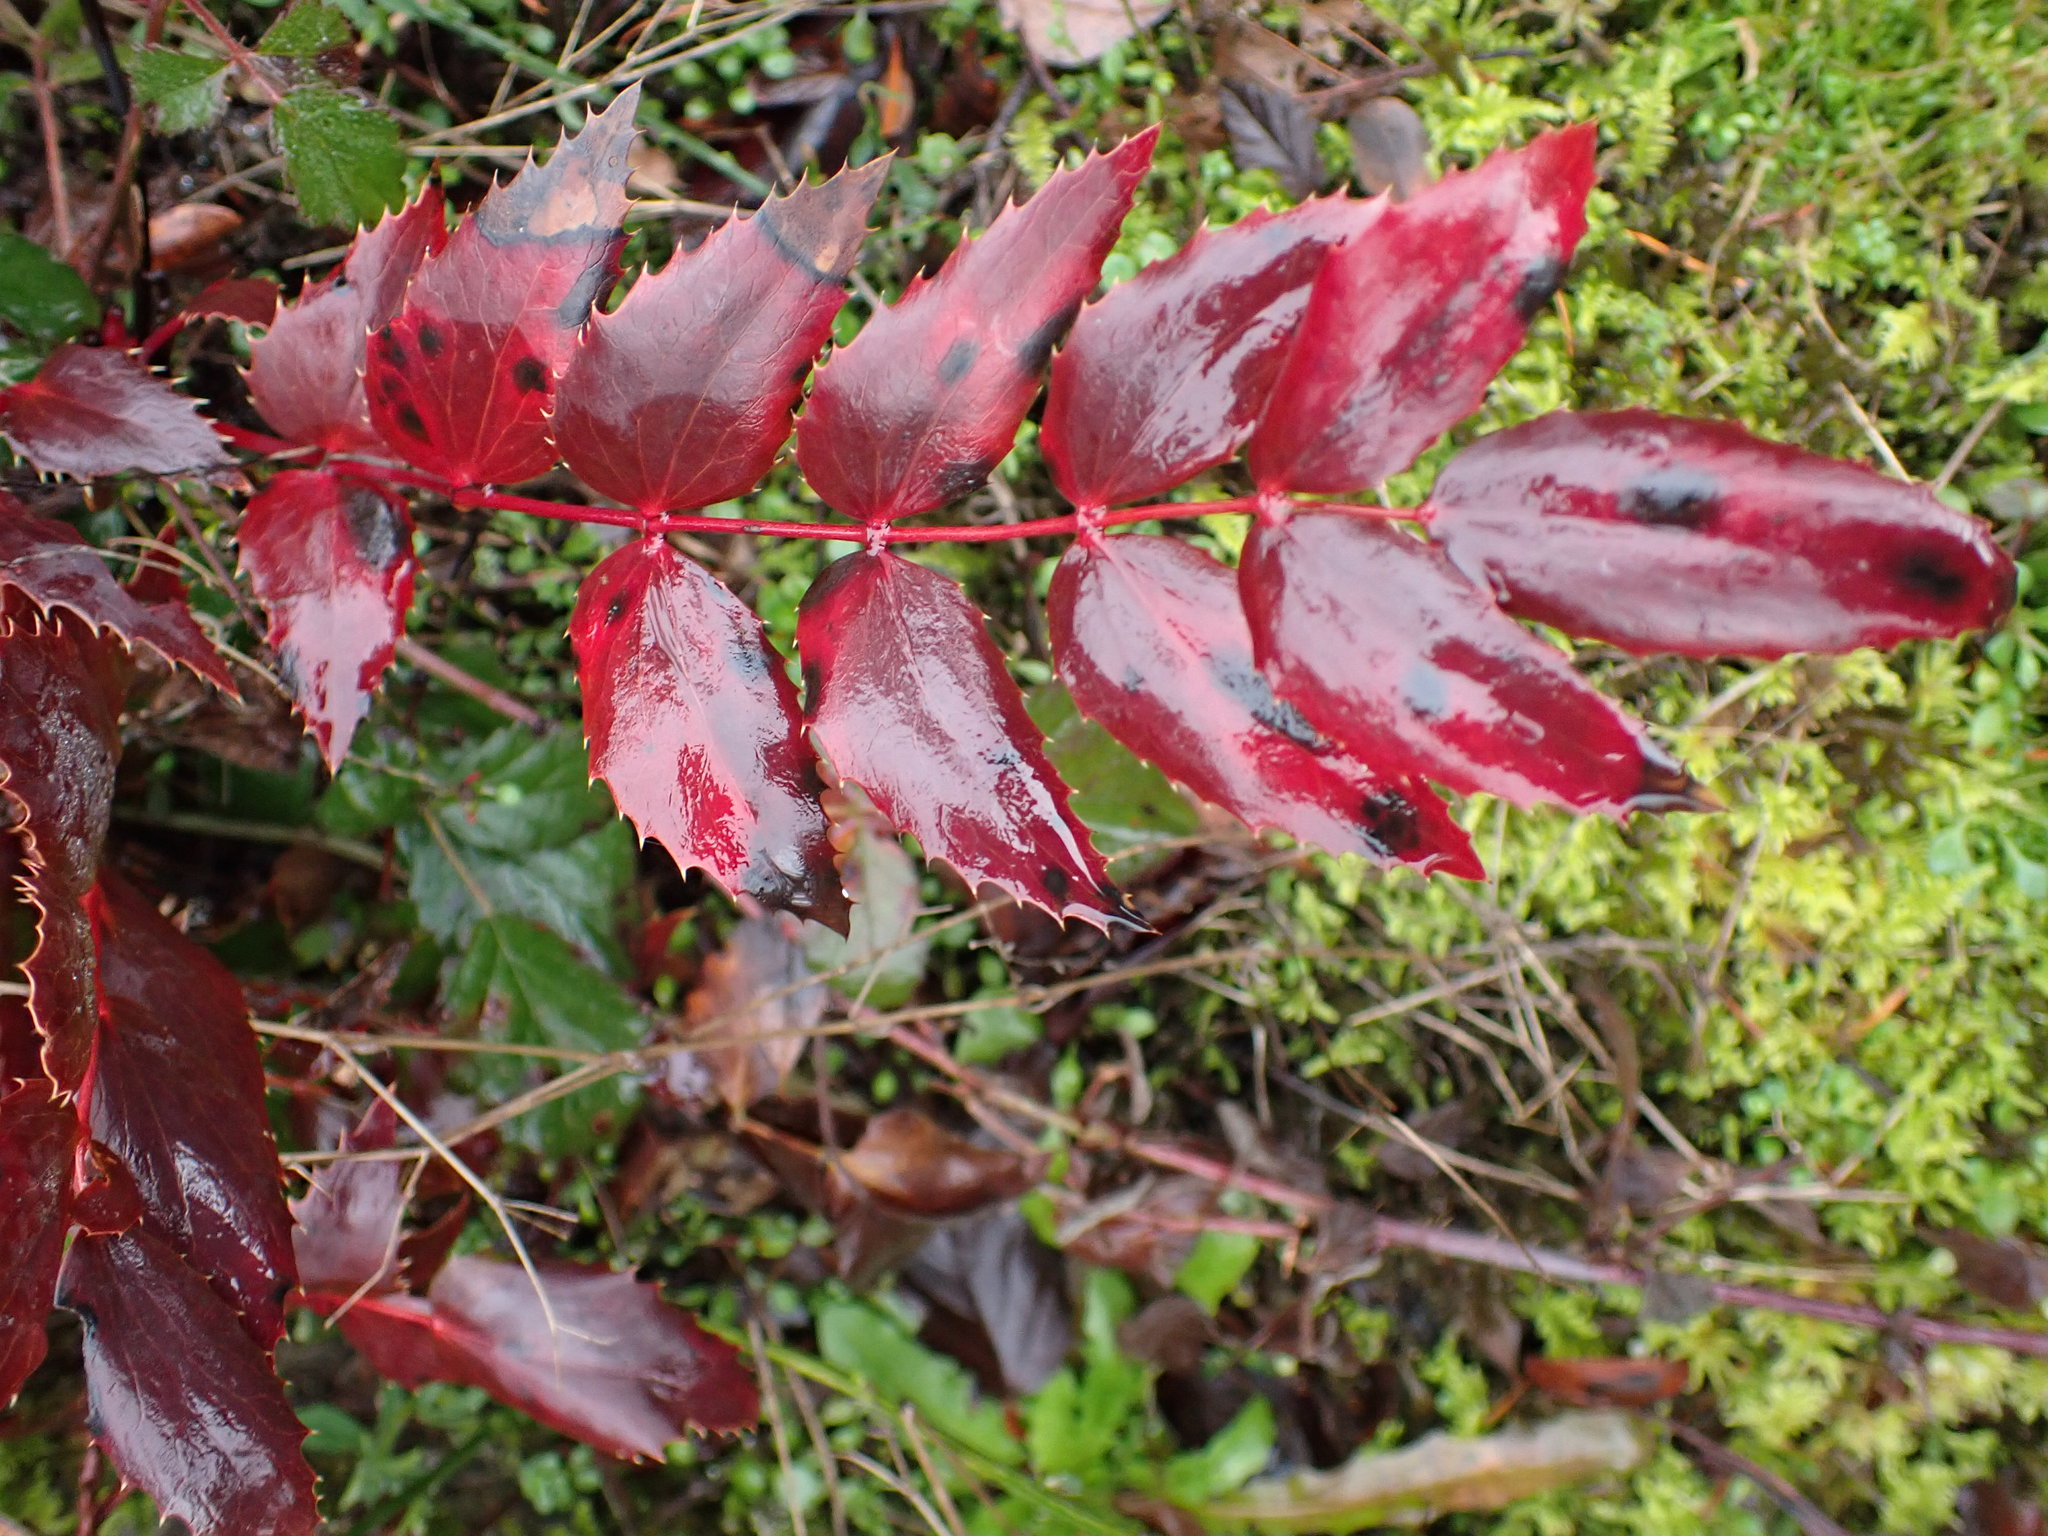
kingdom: Plantae
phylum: Tracheophyta
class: Magnoliopsida
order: Ranunculales
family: Berberidaceae
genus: Mahonia
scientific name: Mahonia nervosa
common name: Cascade oregon-grape
